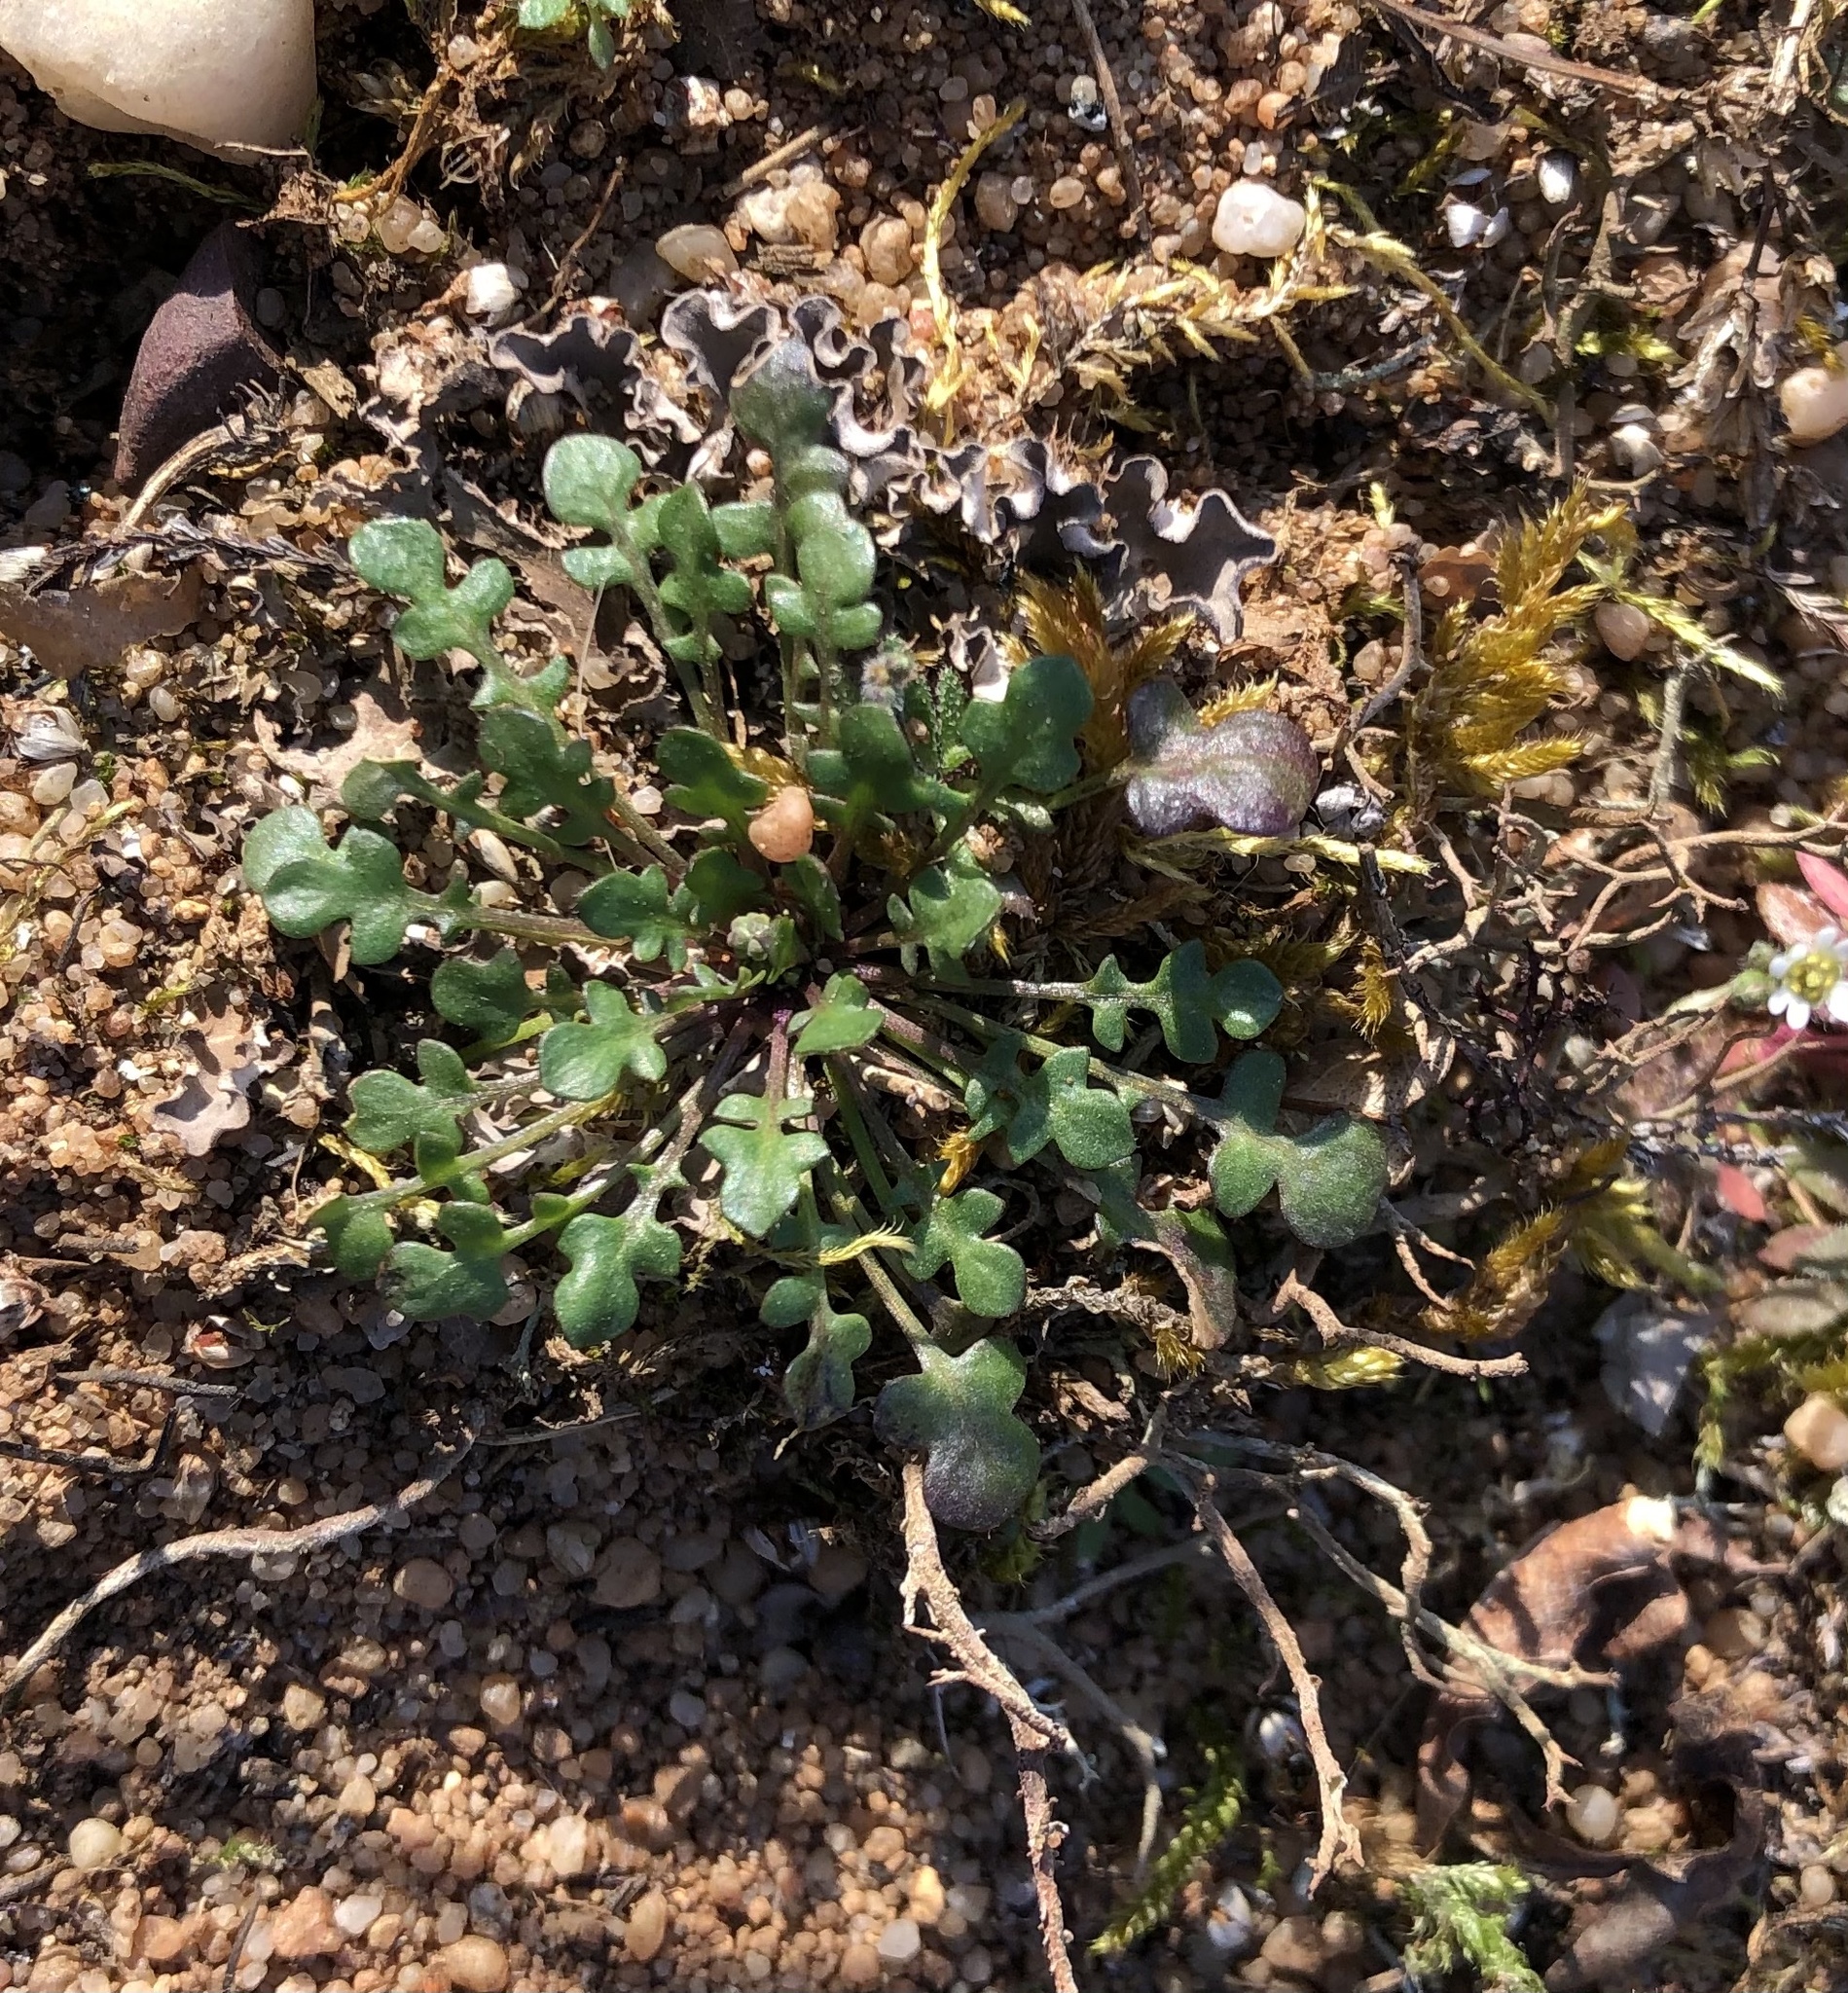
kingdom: Plantae
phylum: Tracheophyta
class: Magnoliopsida
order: Brassicales
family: Brassicaceae
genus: Teesdalia
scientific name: Teesdalia nudicaulis
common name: Shepherd's cress
